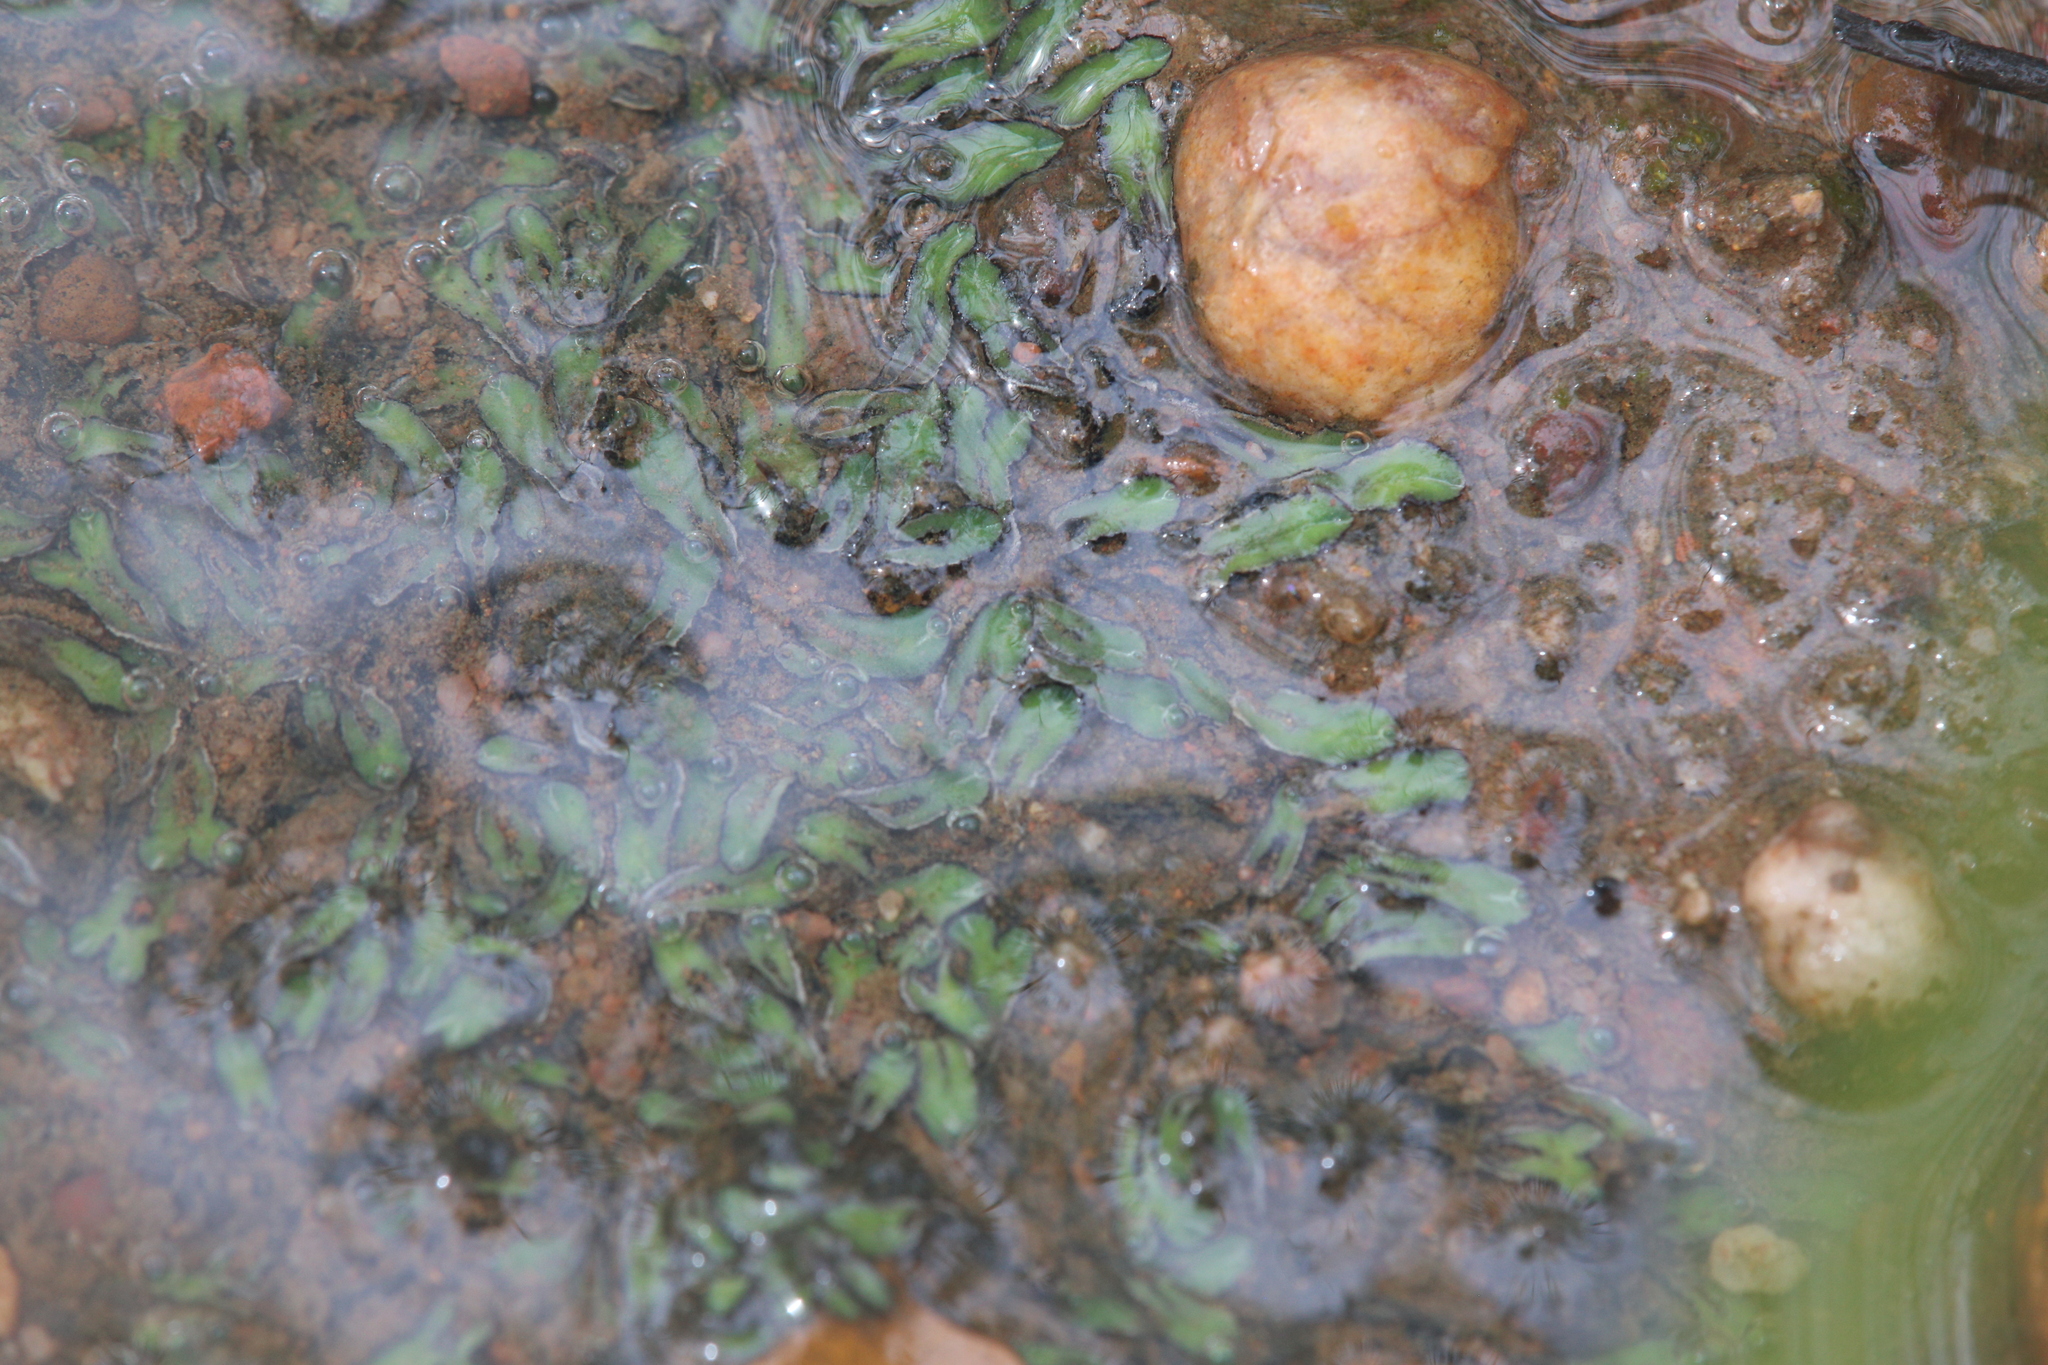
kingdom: Plantae
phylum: Marchantiophyta
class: Marchantiopsida
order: Marchantiales
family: Ricciaceae
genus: Riccia
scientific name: Riccia billardierei
